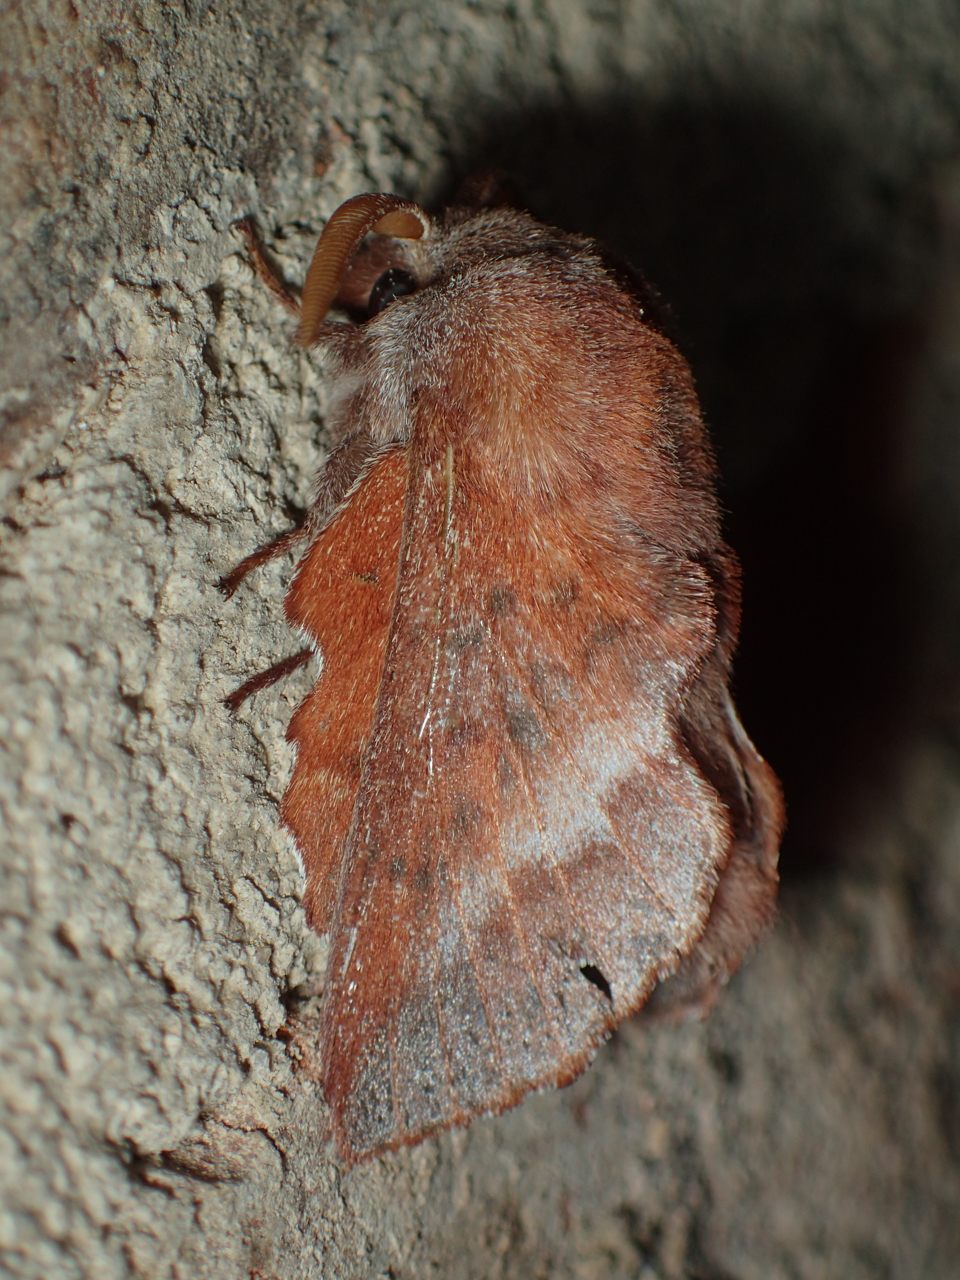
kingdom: Animalia
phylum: Arthropoda
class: Insecta
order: Lepidoptera
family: Lasiocampidae
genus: Phyllodesma
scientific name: Phyllodesma americana
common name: American lappet moth
